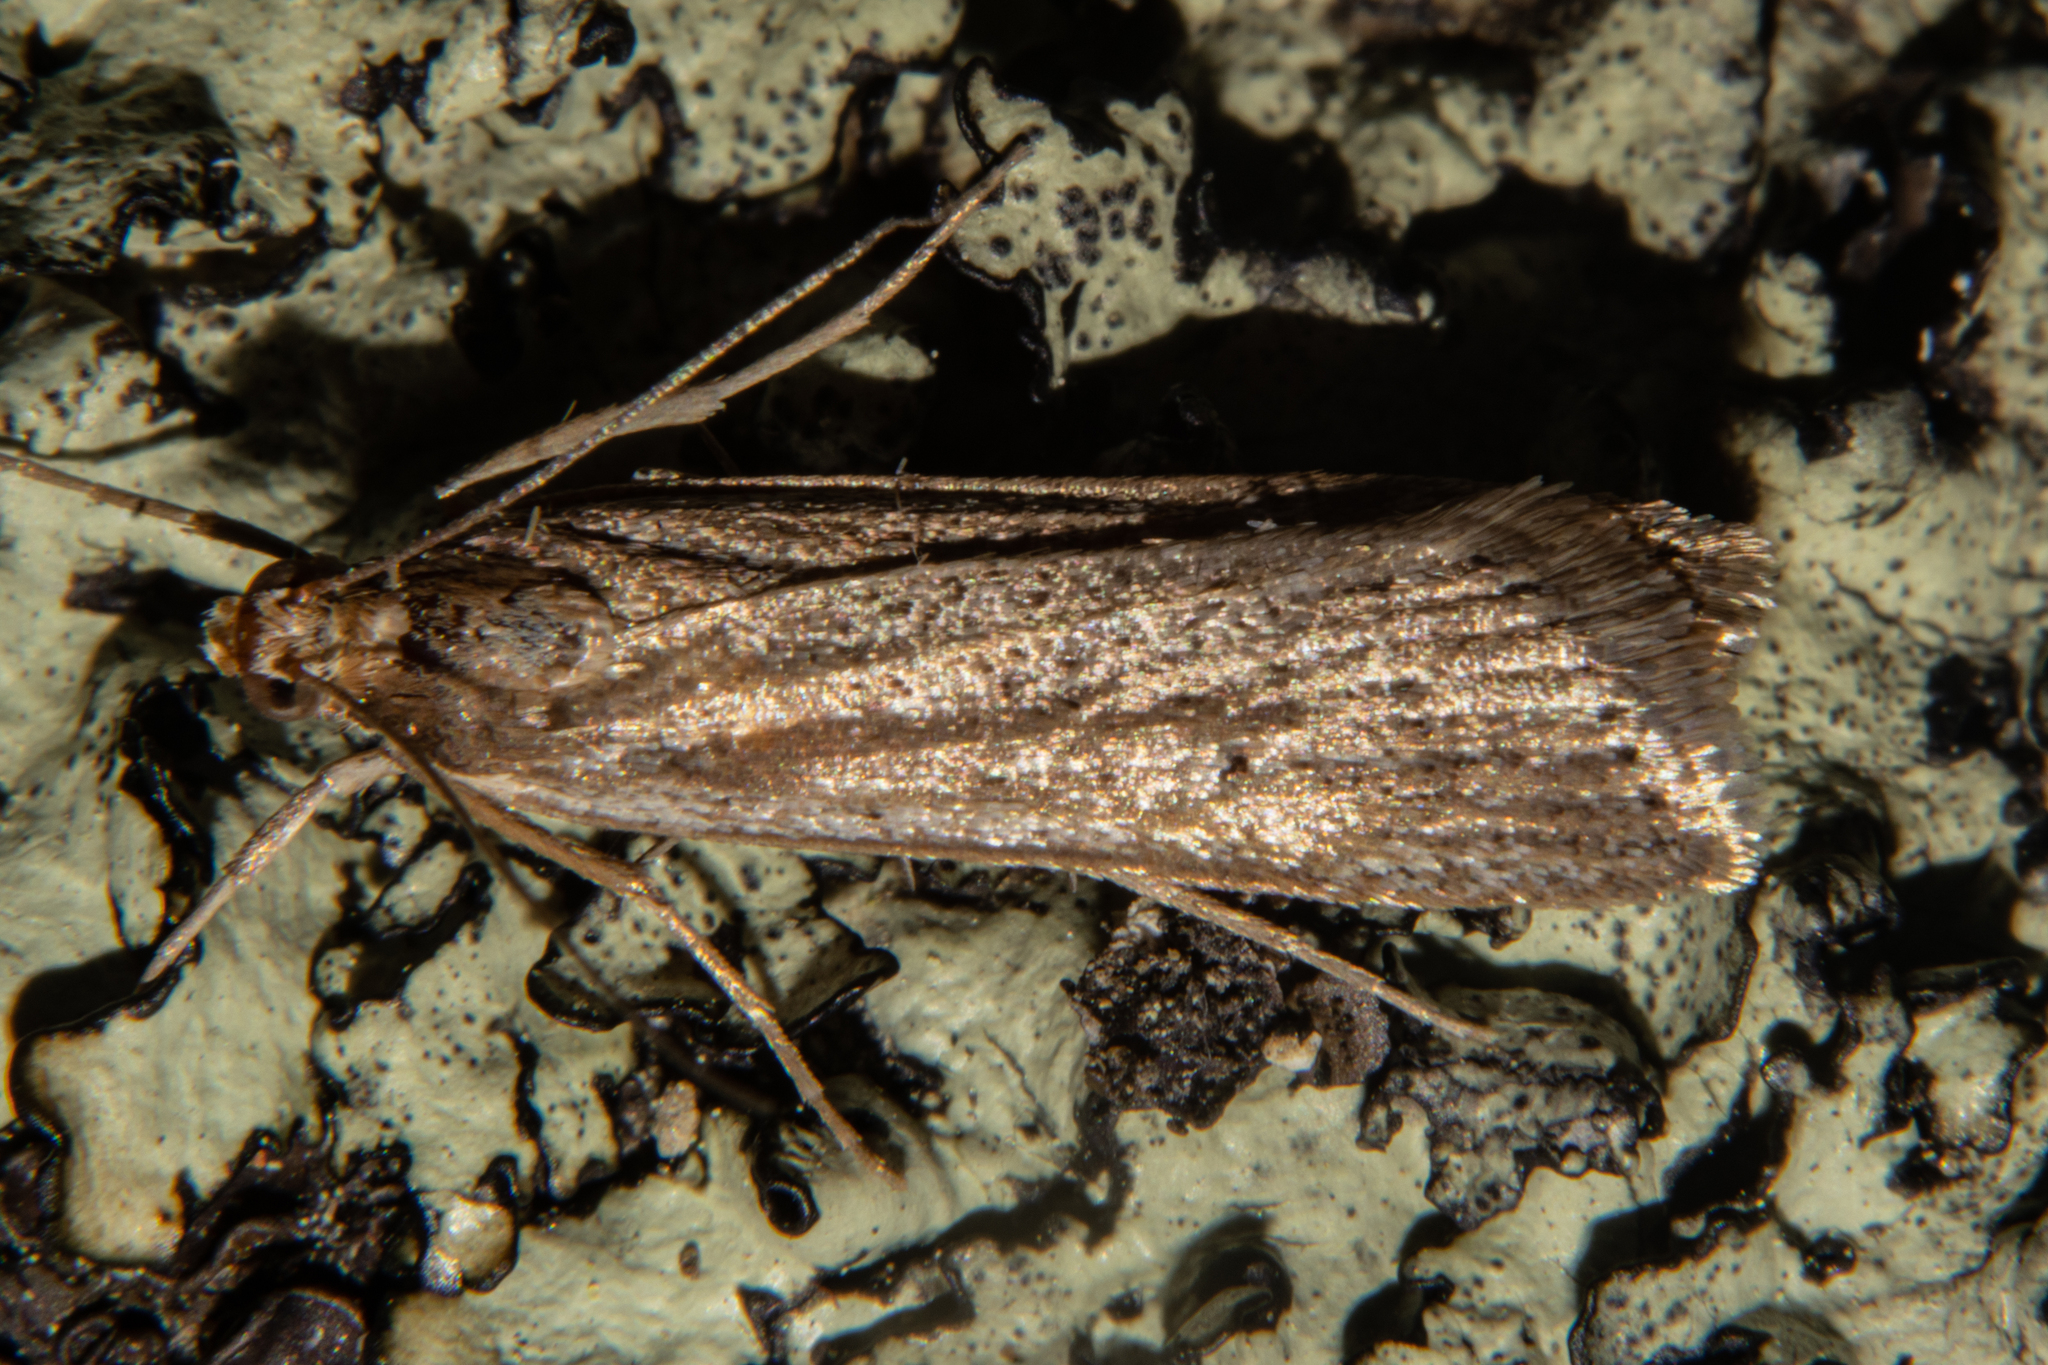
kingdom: Animalia
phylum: Arthropoda
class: Insecta
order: Lepidoptera
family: Crambidae
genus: Eudonia
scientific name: Eudonia sabulosella
